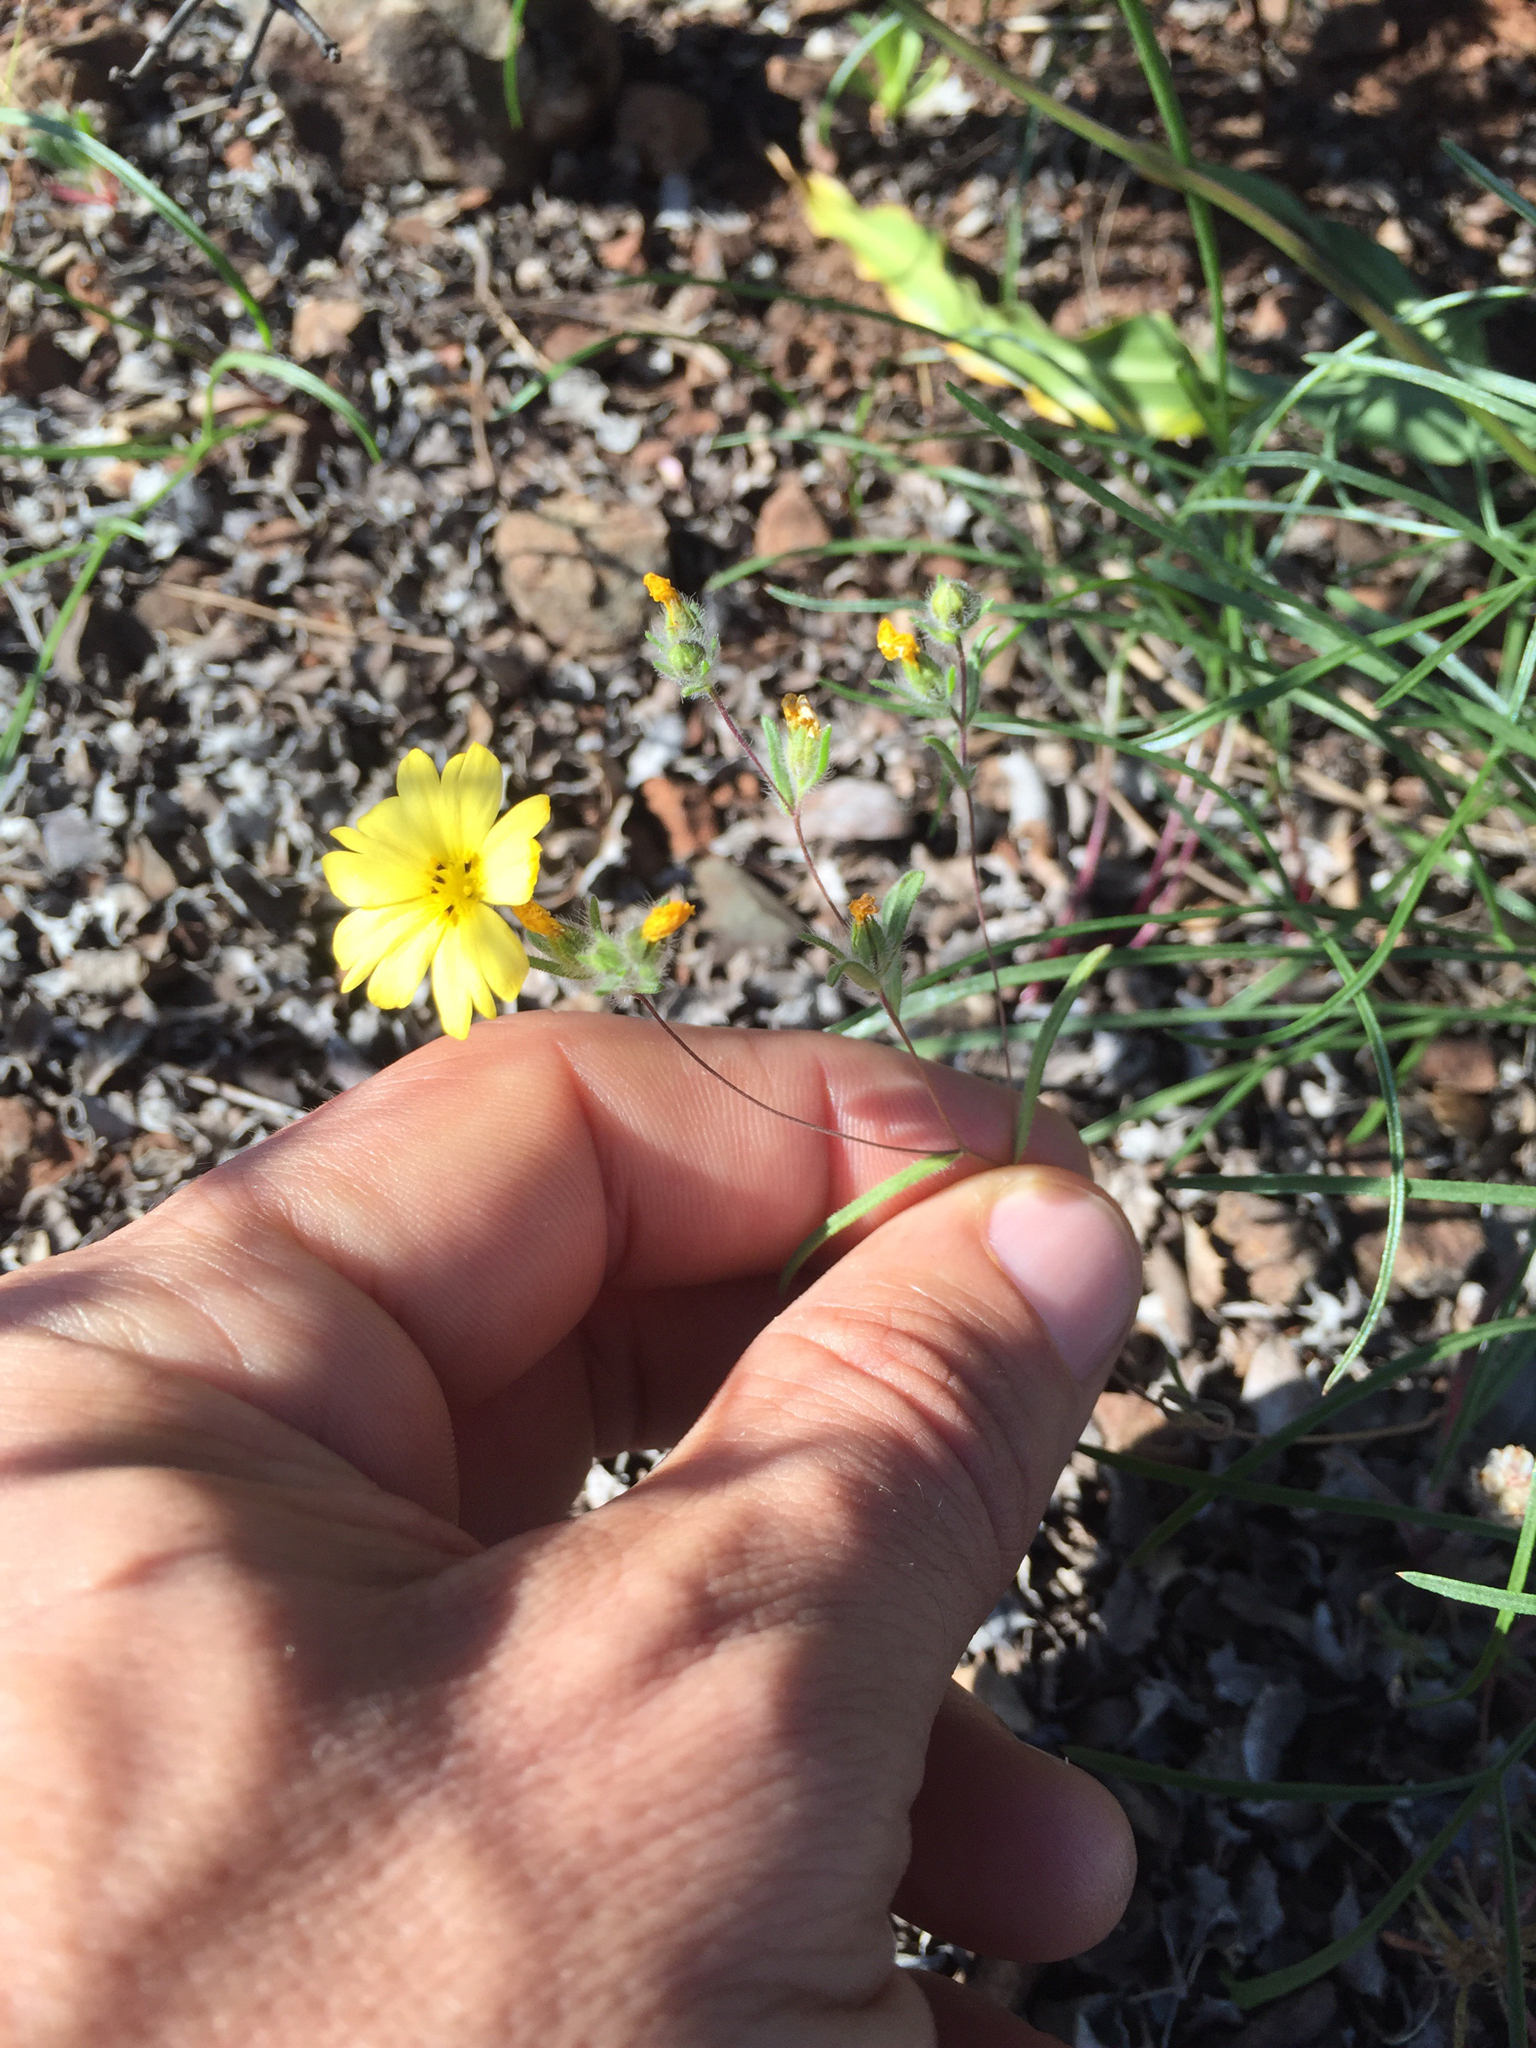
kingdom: Plantae
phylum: Tracheophyta
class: Magnoliopsida
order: Asterales
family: Asteraceae
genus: Lagophylla
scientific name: Lagophylla minor
